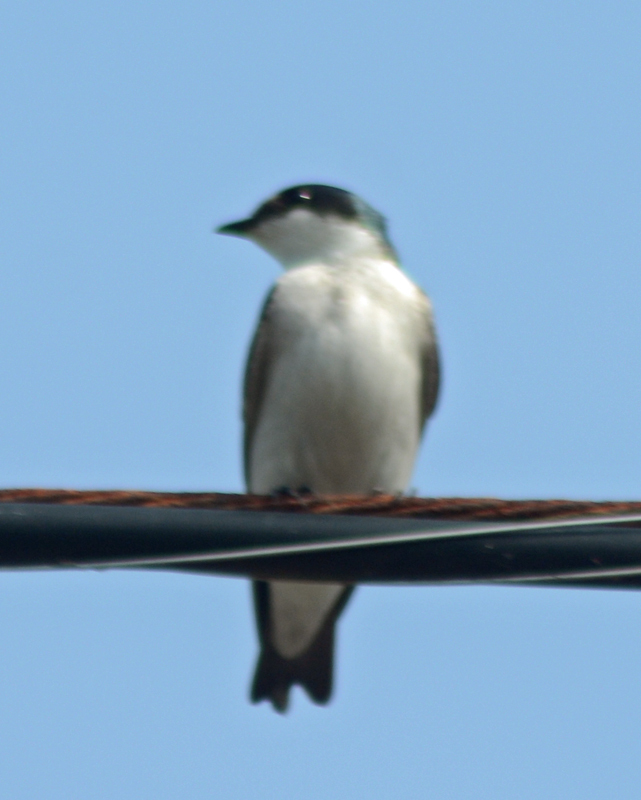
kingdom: Animalia
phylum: Chordata
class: Aves
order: Passeriformes
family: Hirundinidae
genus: Tachycineta
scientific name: Tachycineta albilinea
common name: Mangrove swallow
